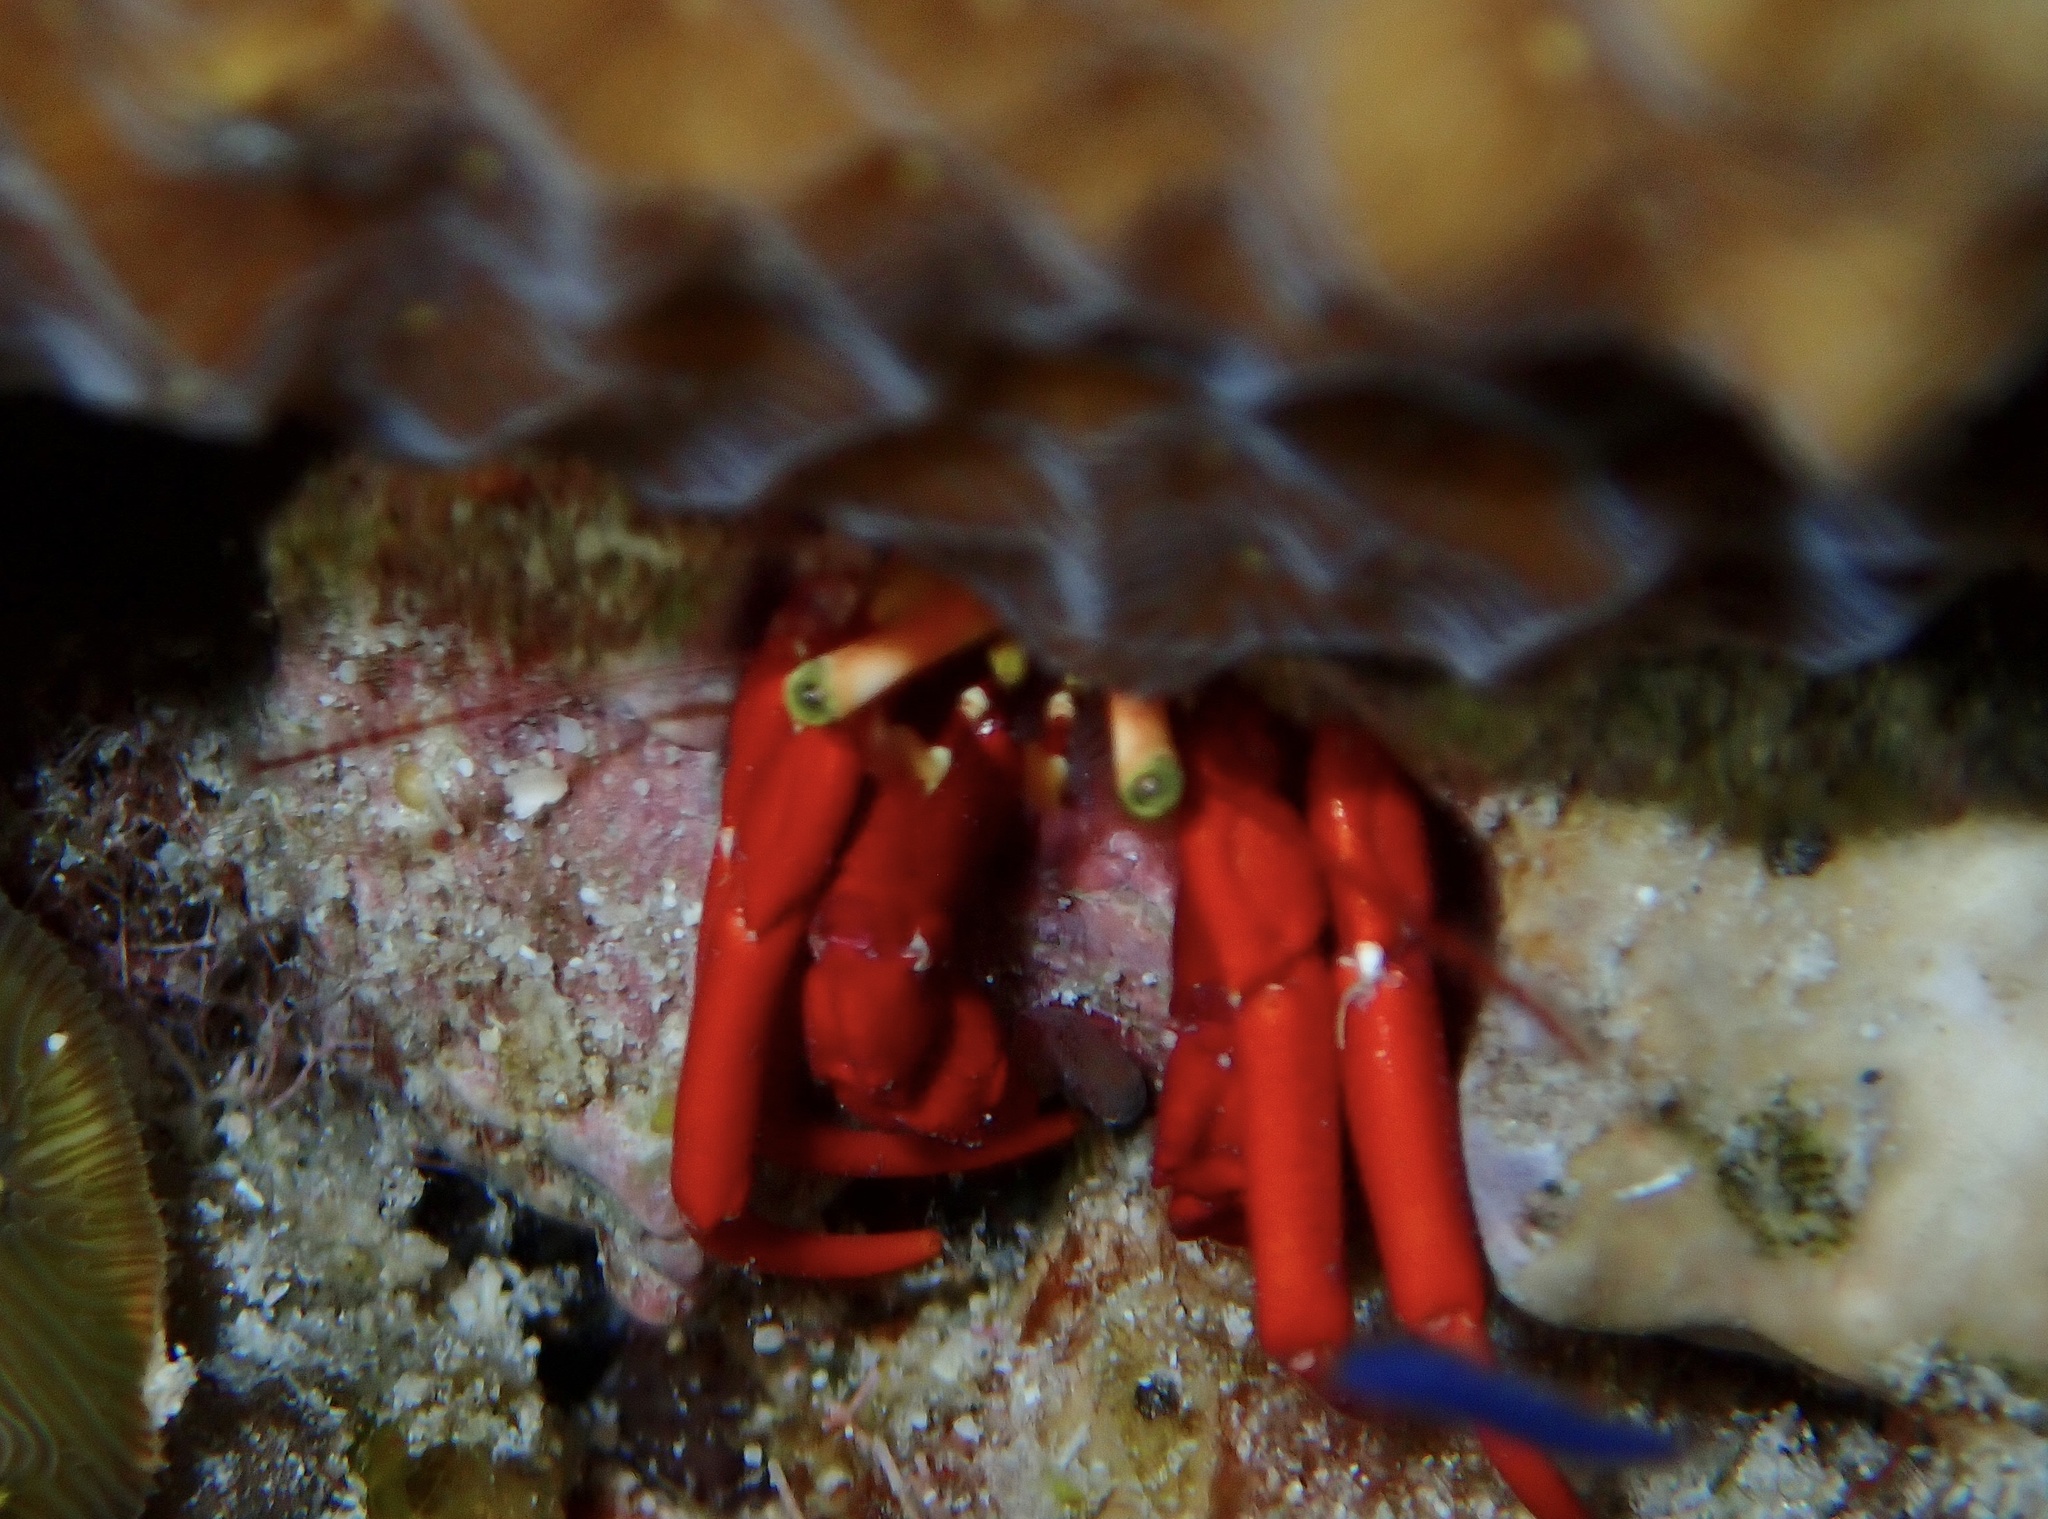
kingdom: Animalia
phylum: Arthropoda
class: Malacostraca
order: Decapoda
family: Diogenidae
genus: Paguristes
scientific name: Paguristes cadenati
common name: Red reef hermit
